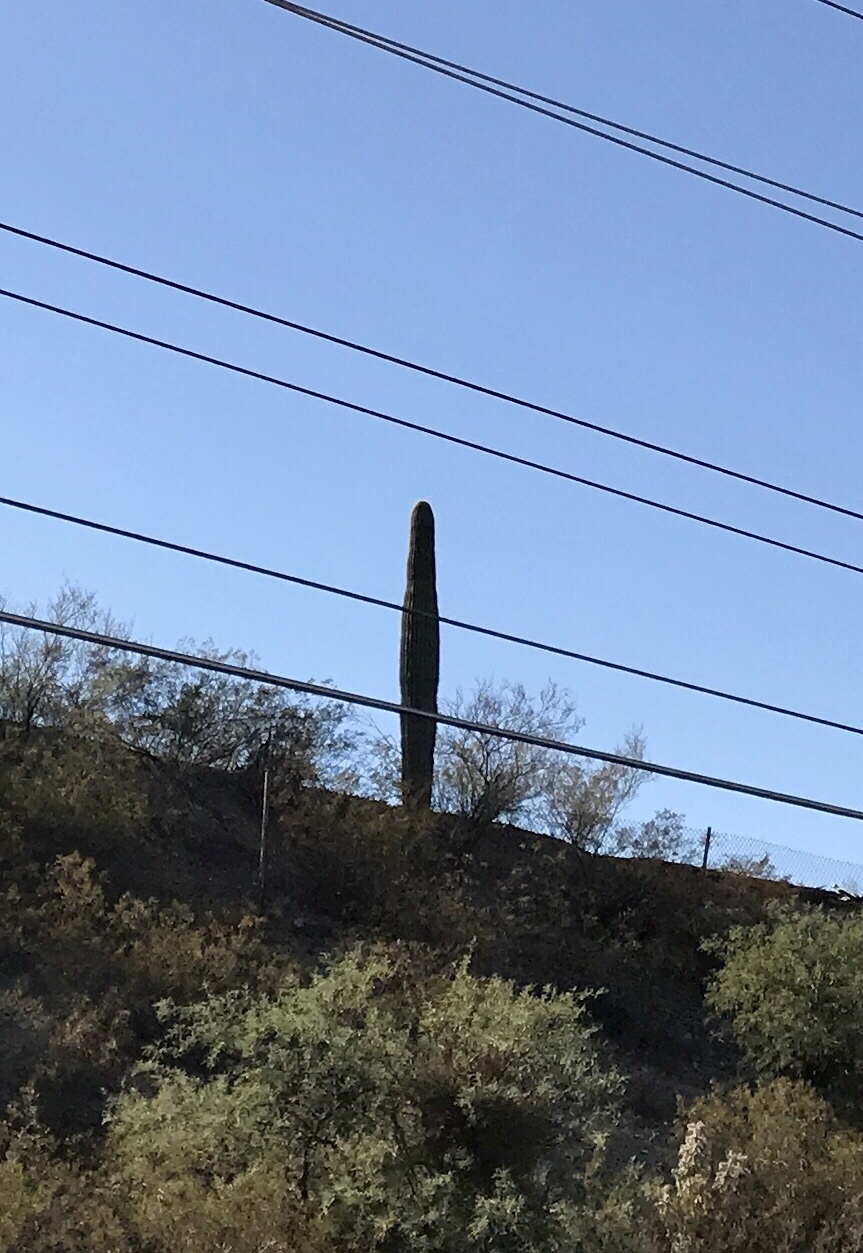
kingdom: Plantae
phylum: Tracheophyta
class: Magnoliopsida
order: Caryophyllales
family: Cactaceae
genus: Carnegiea
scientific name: Carnegiea gigantea
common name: Saguaro
